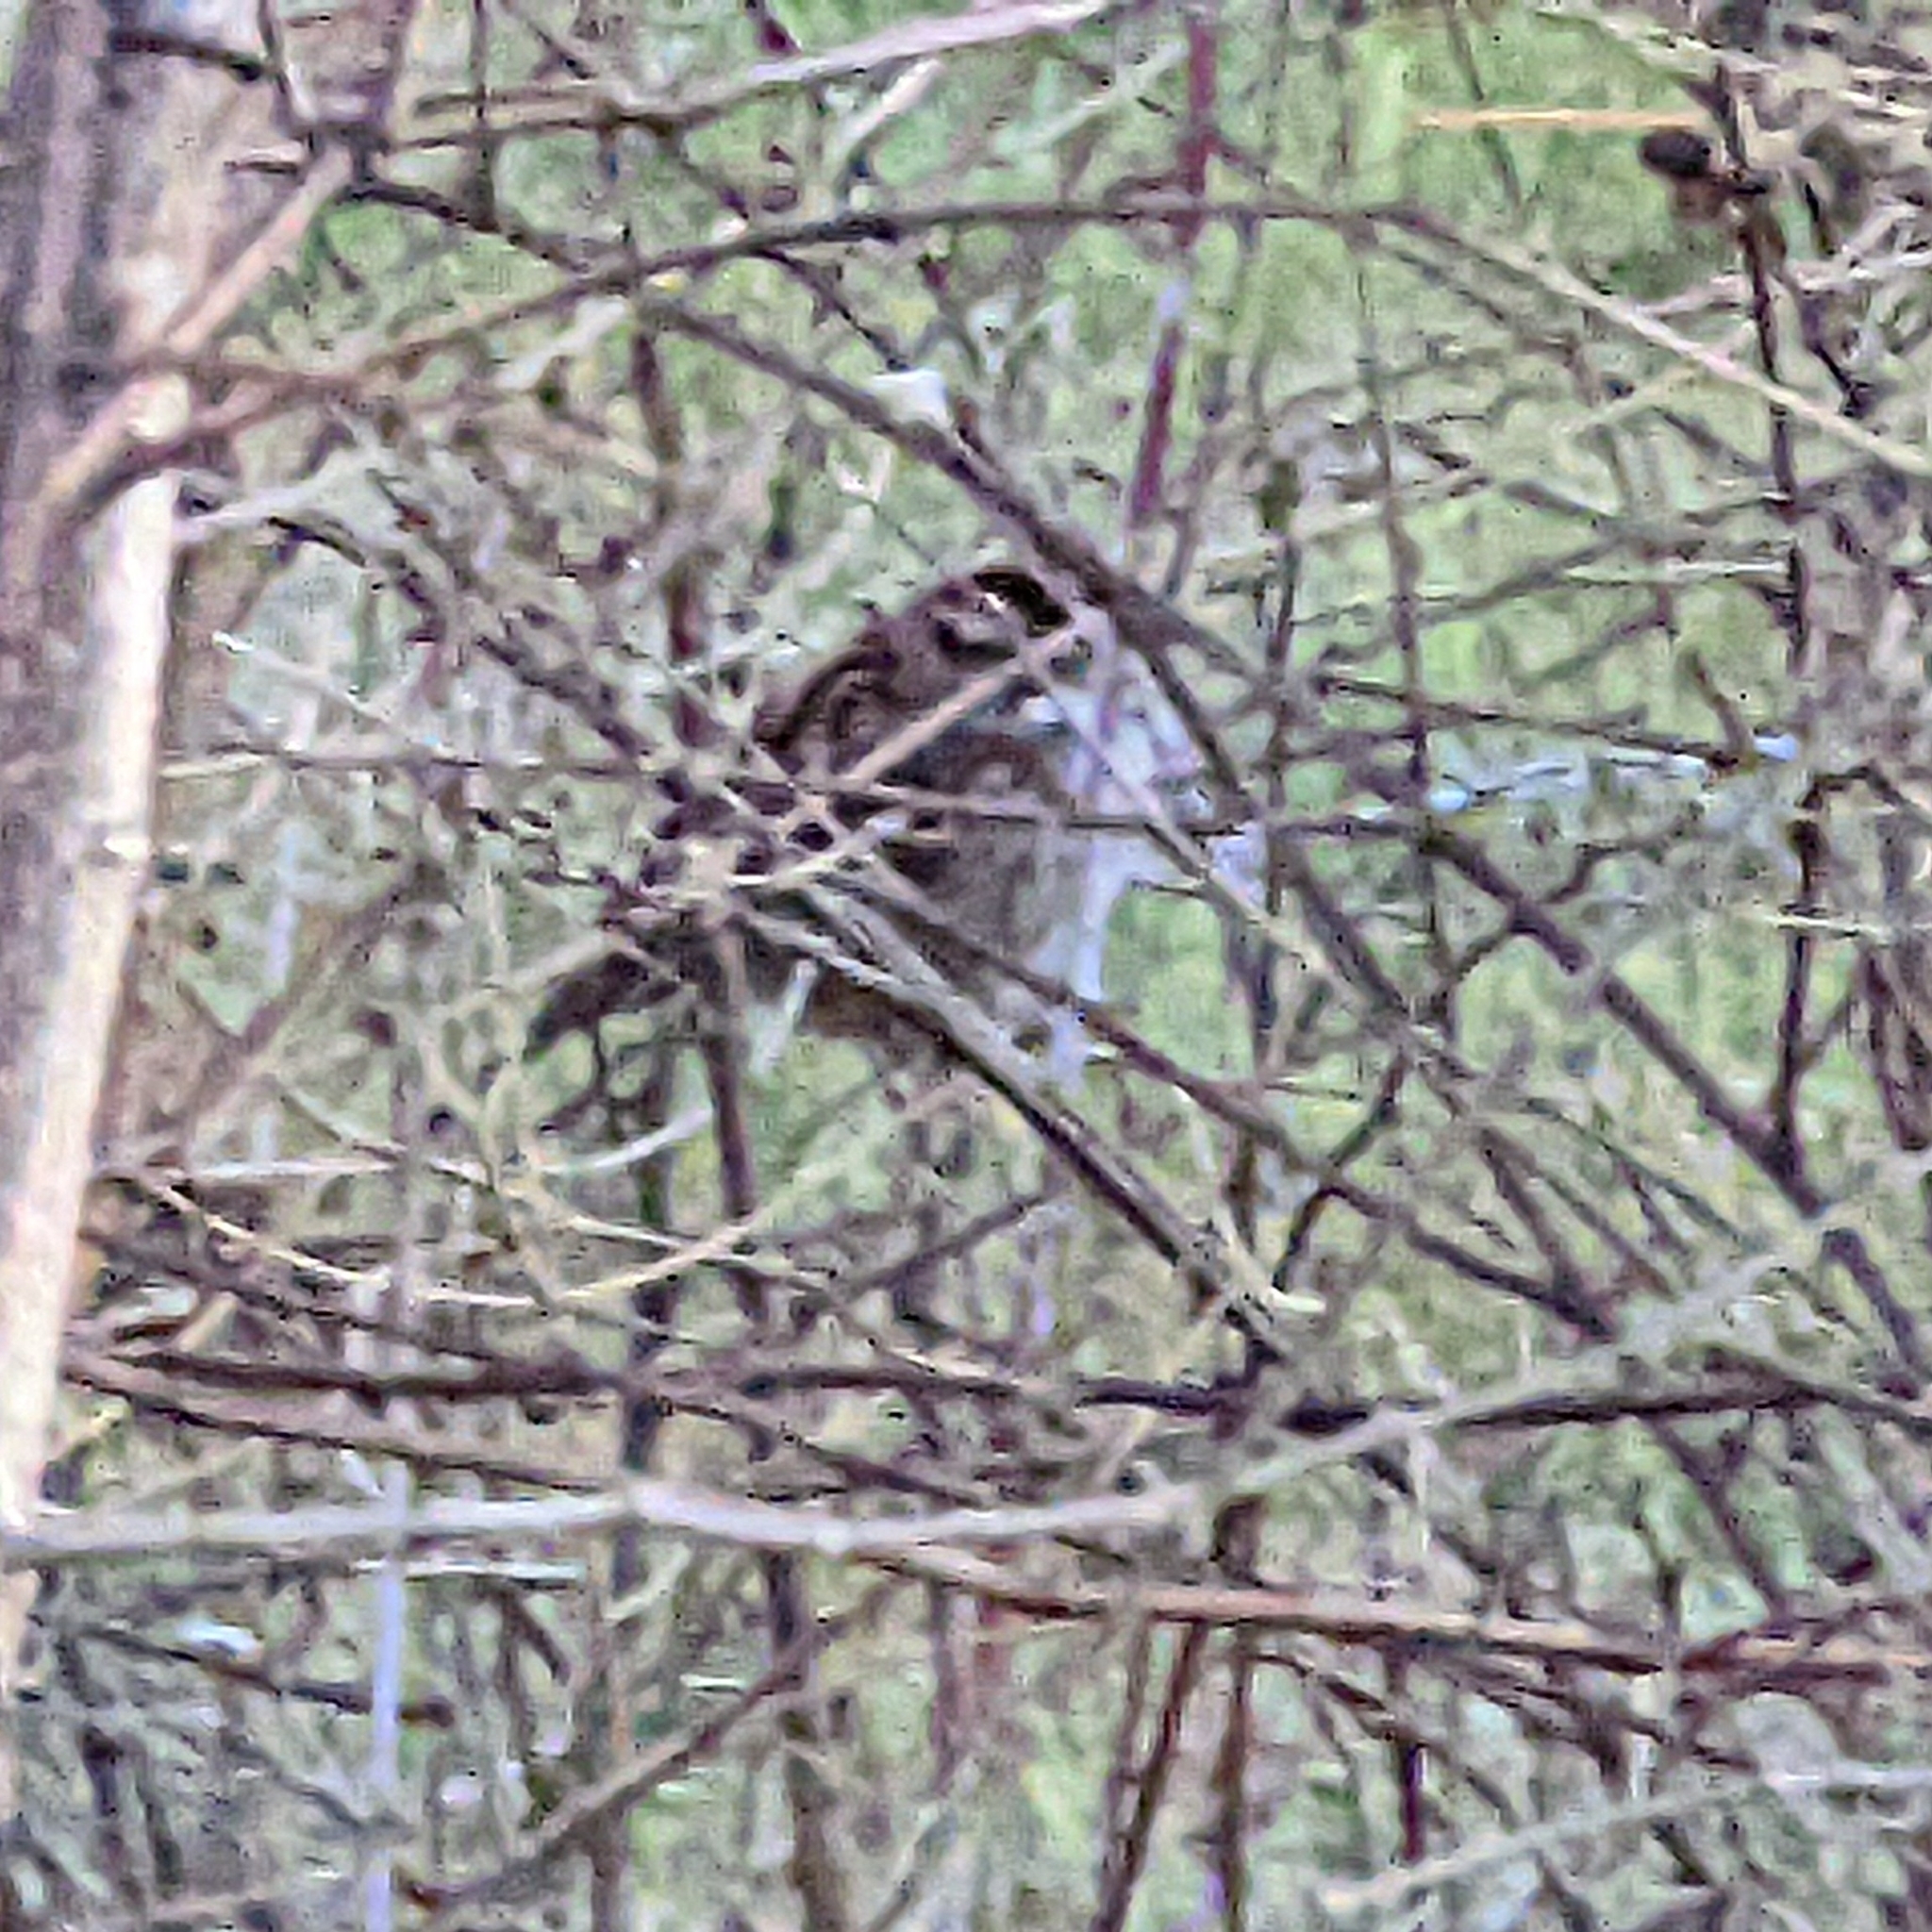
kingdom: Animalia
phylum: Chordata
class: Aves
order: Passeriformes
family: Passerellidae
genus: Zonotrichia
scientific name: Zonotrichia albicollis
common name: White-throated sparrow
